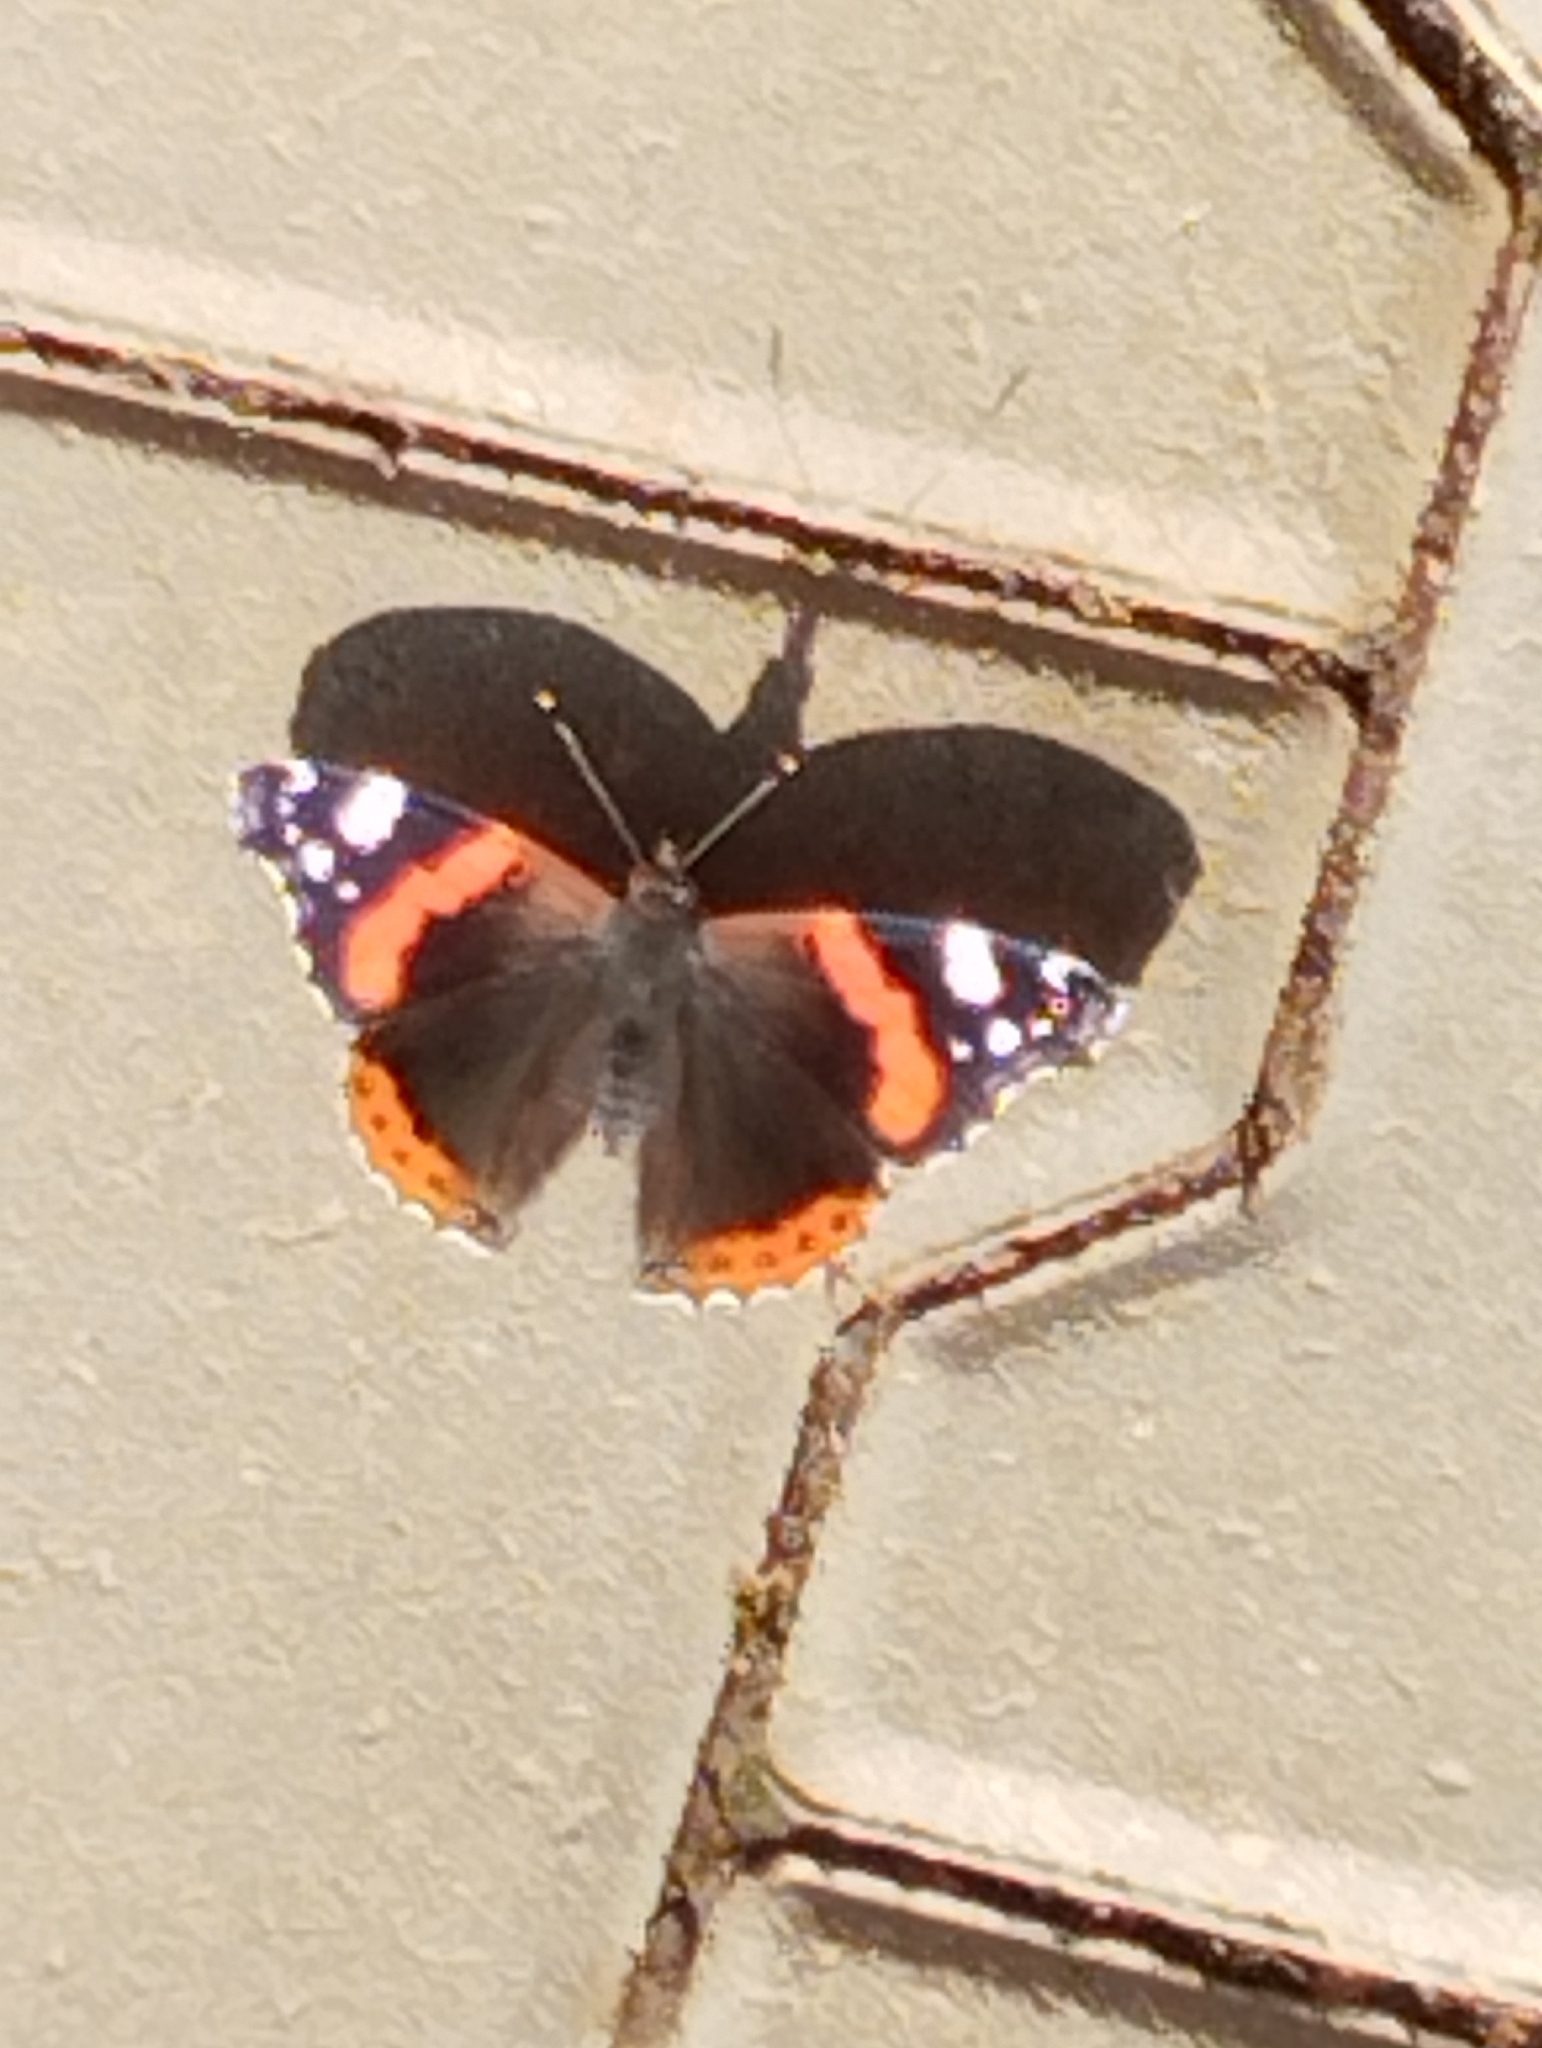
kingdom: Animalia
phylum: Arthropoda
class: Insecta
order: Lepidoptera
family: Nymphalidae
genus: Vanessa
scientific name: Vanessa atalanta
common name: Red admiral
